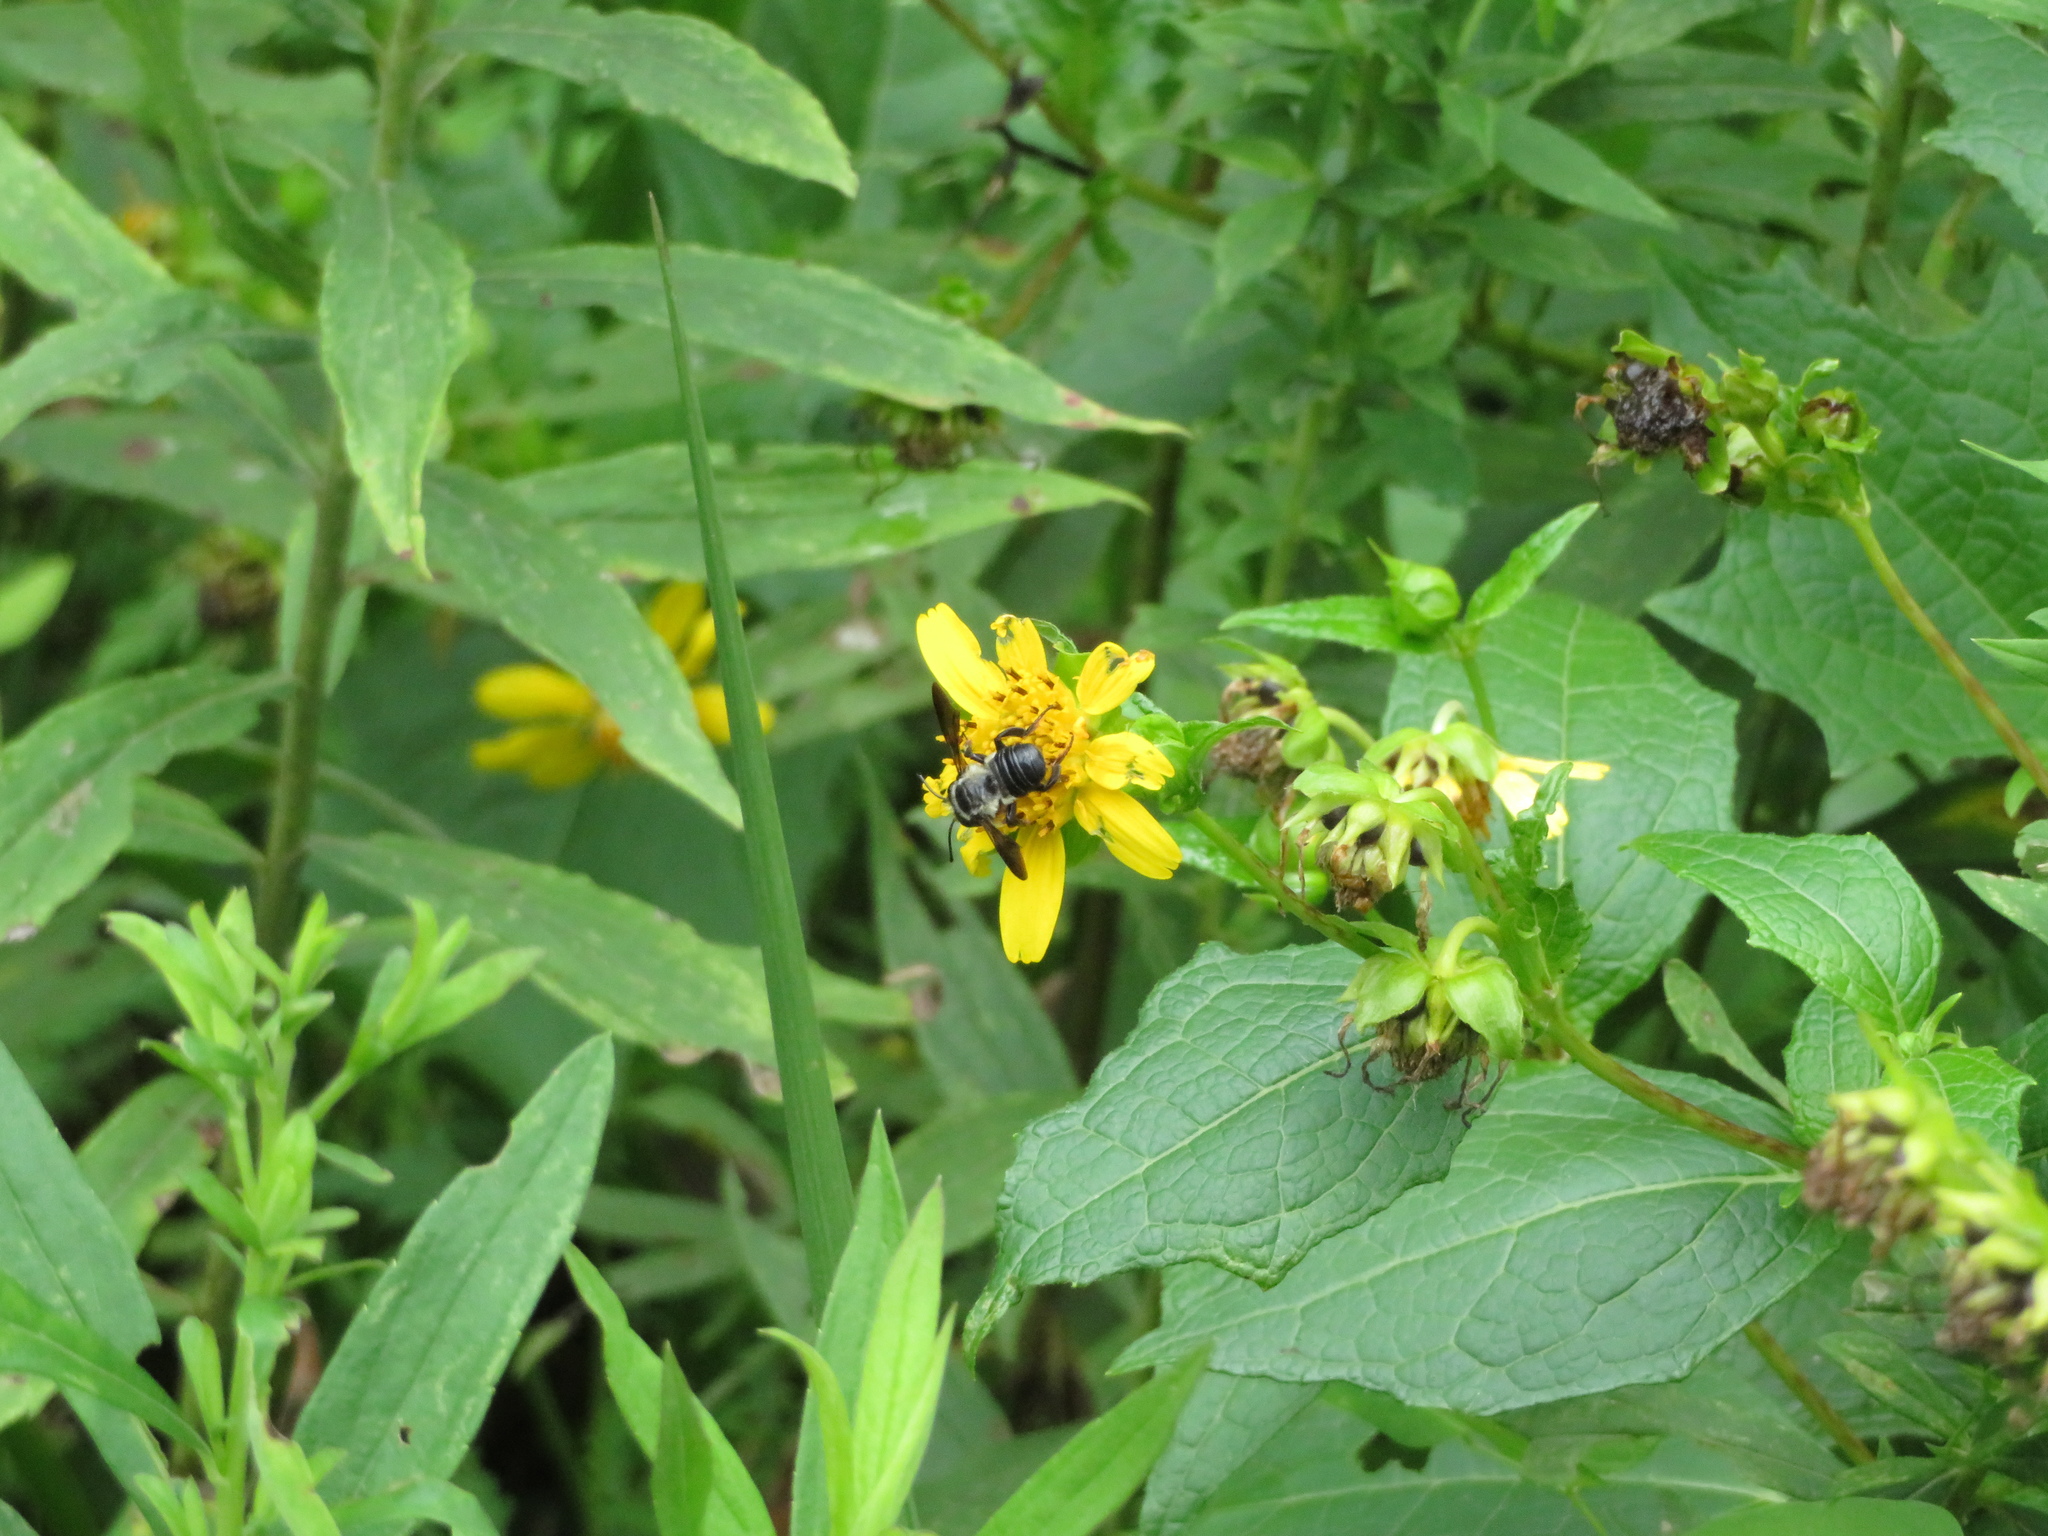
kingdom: Animalia
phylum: Arthropoda
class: Insecta
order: Hymenoptera
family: Megachilidae
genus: Megachile
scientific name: Megachile xylocopoides
